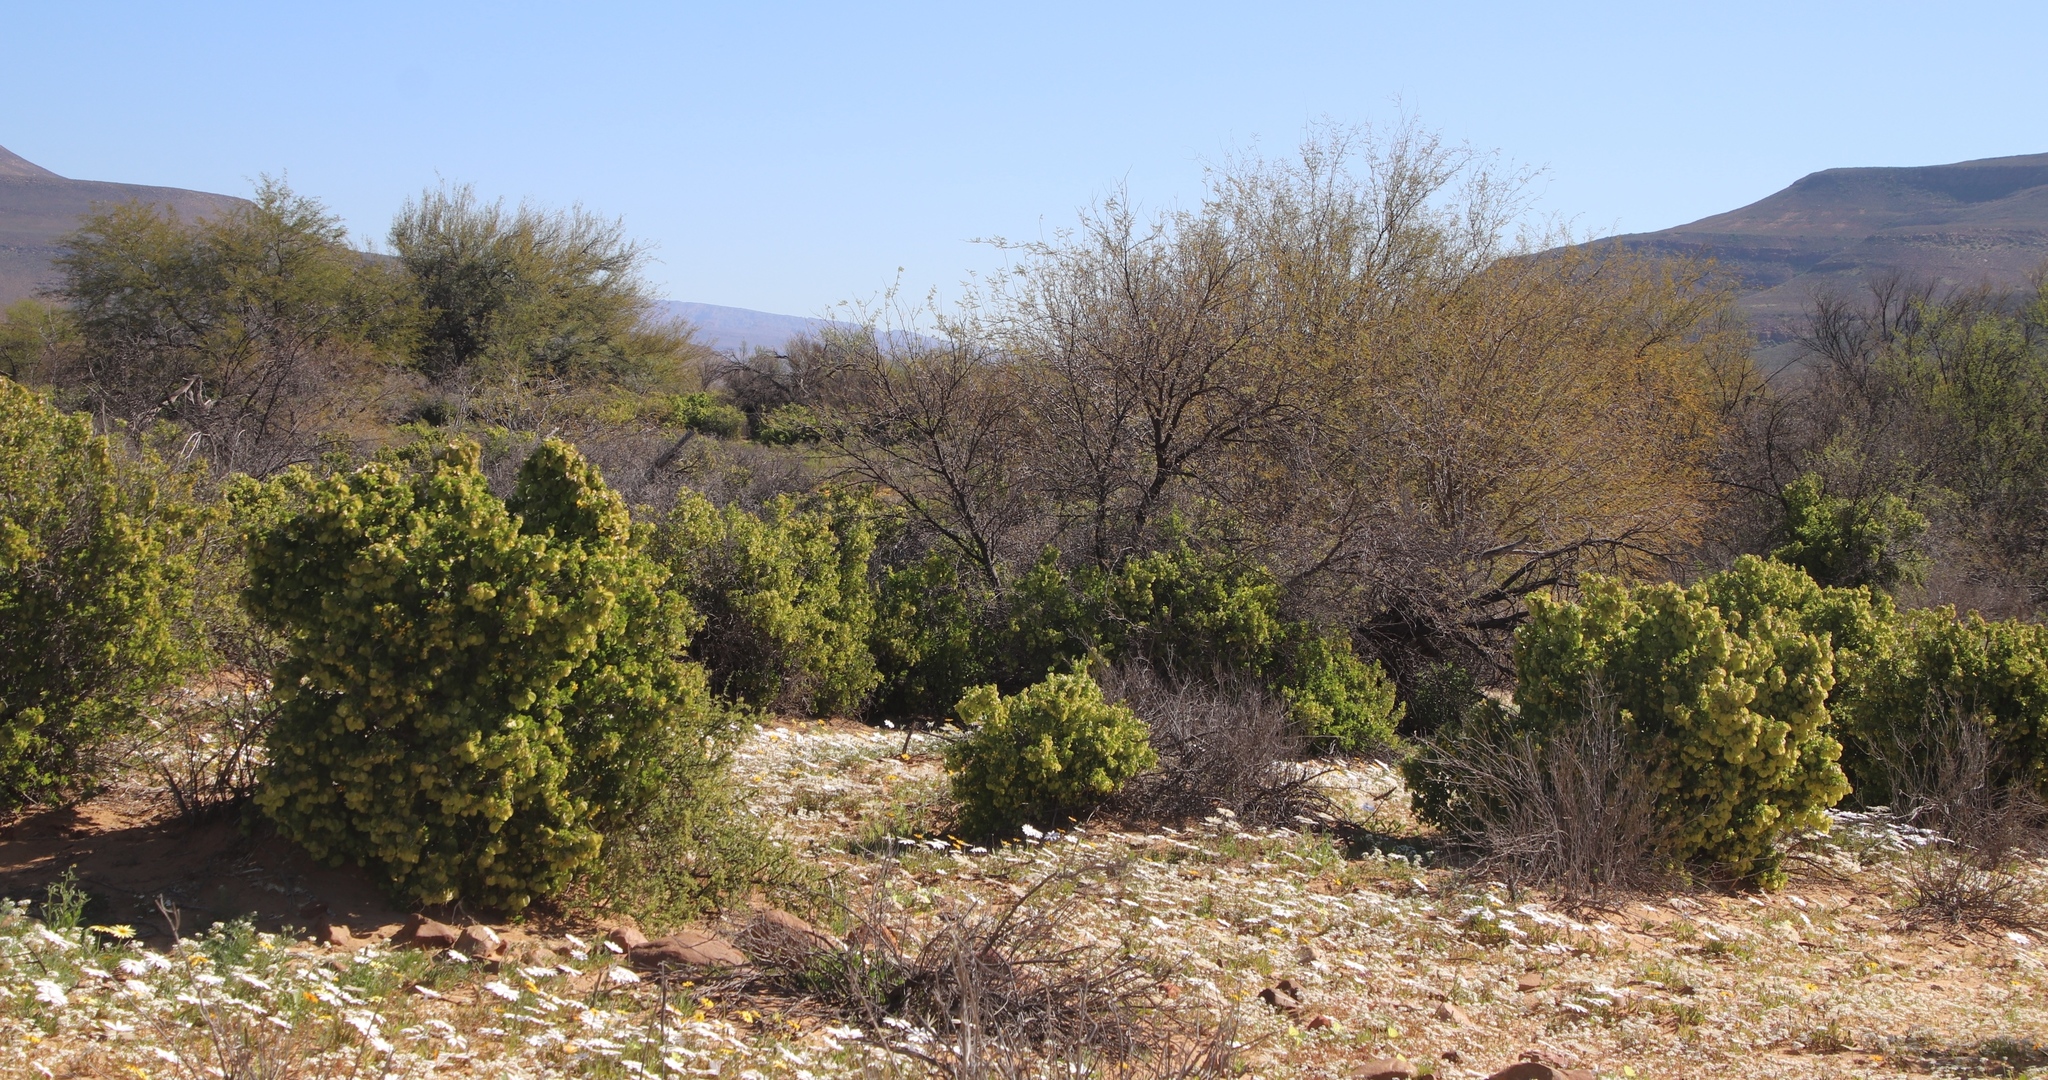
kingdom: Plantae
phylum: Tracheophyta
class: Magnoliopsida
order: Zygophyllales
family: Zygophyllaceae
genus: Roepera
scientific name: Roepera morgsana
